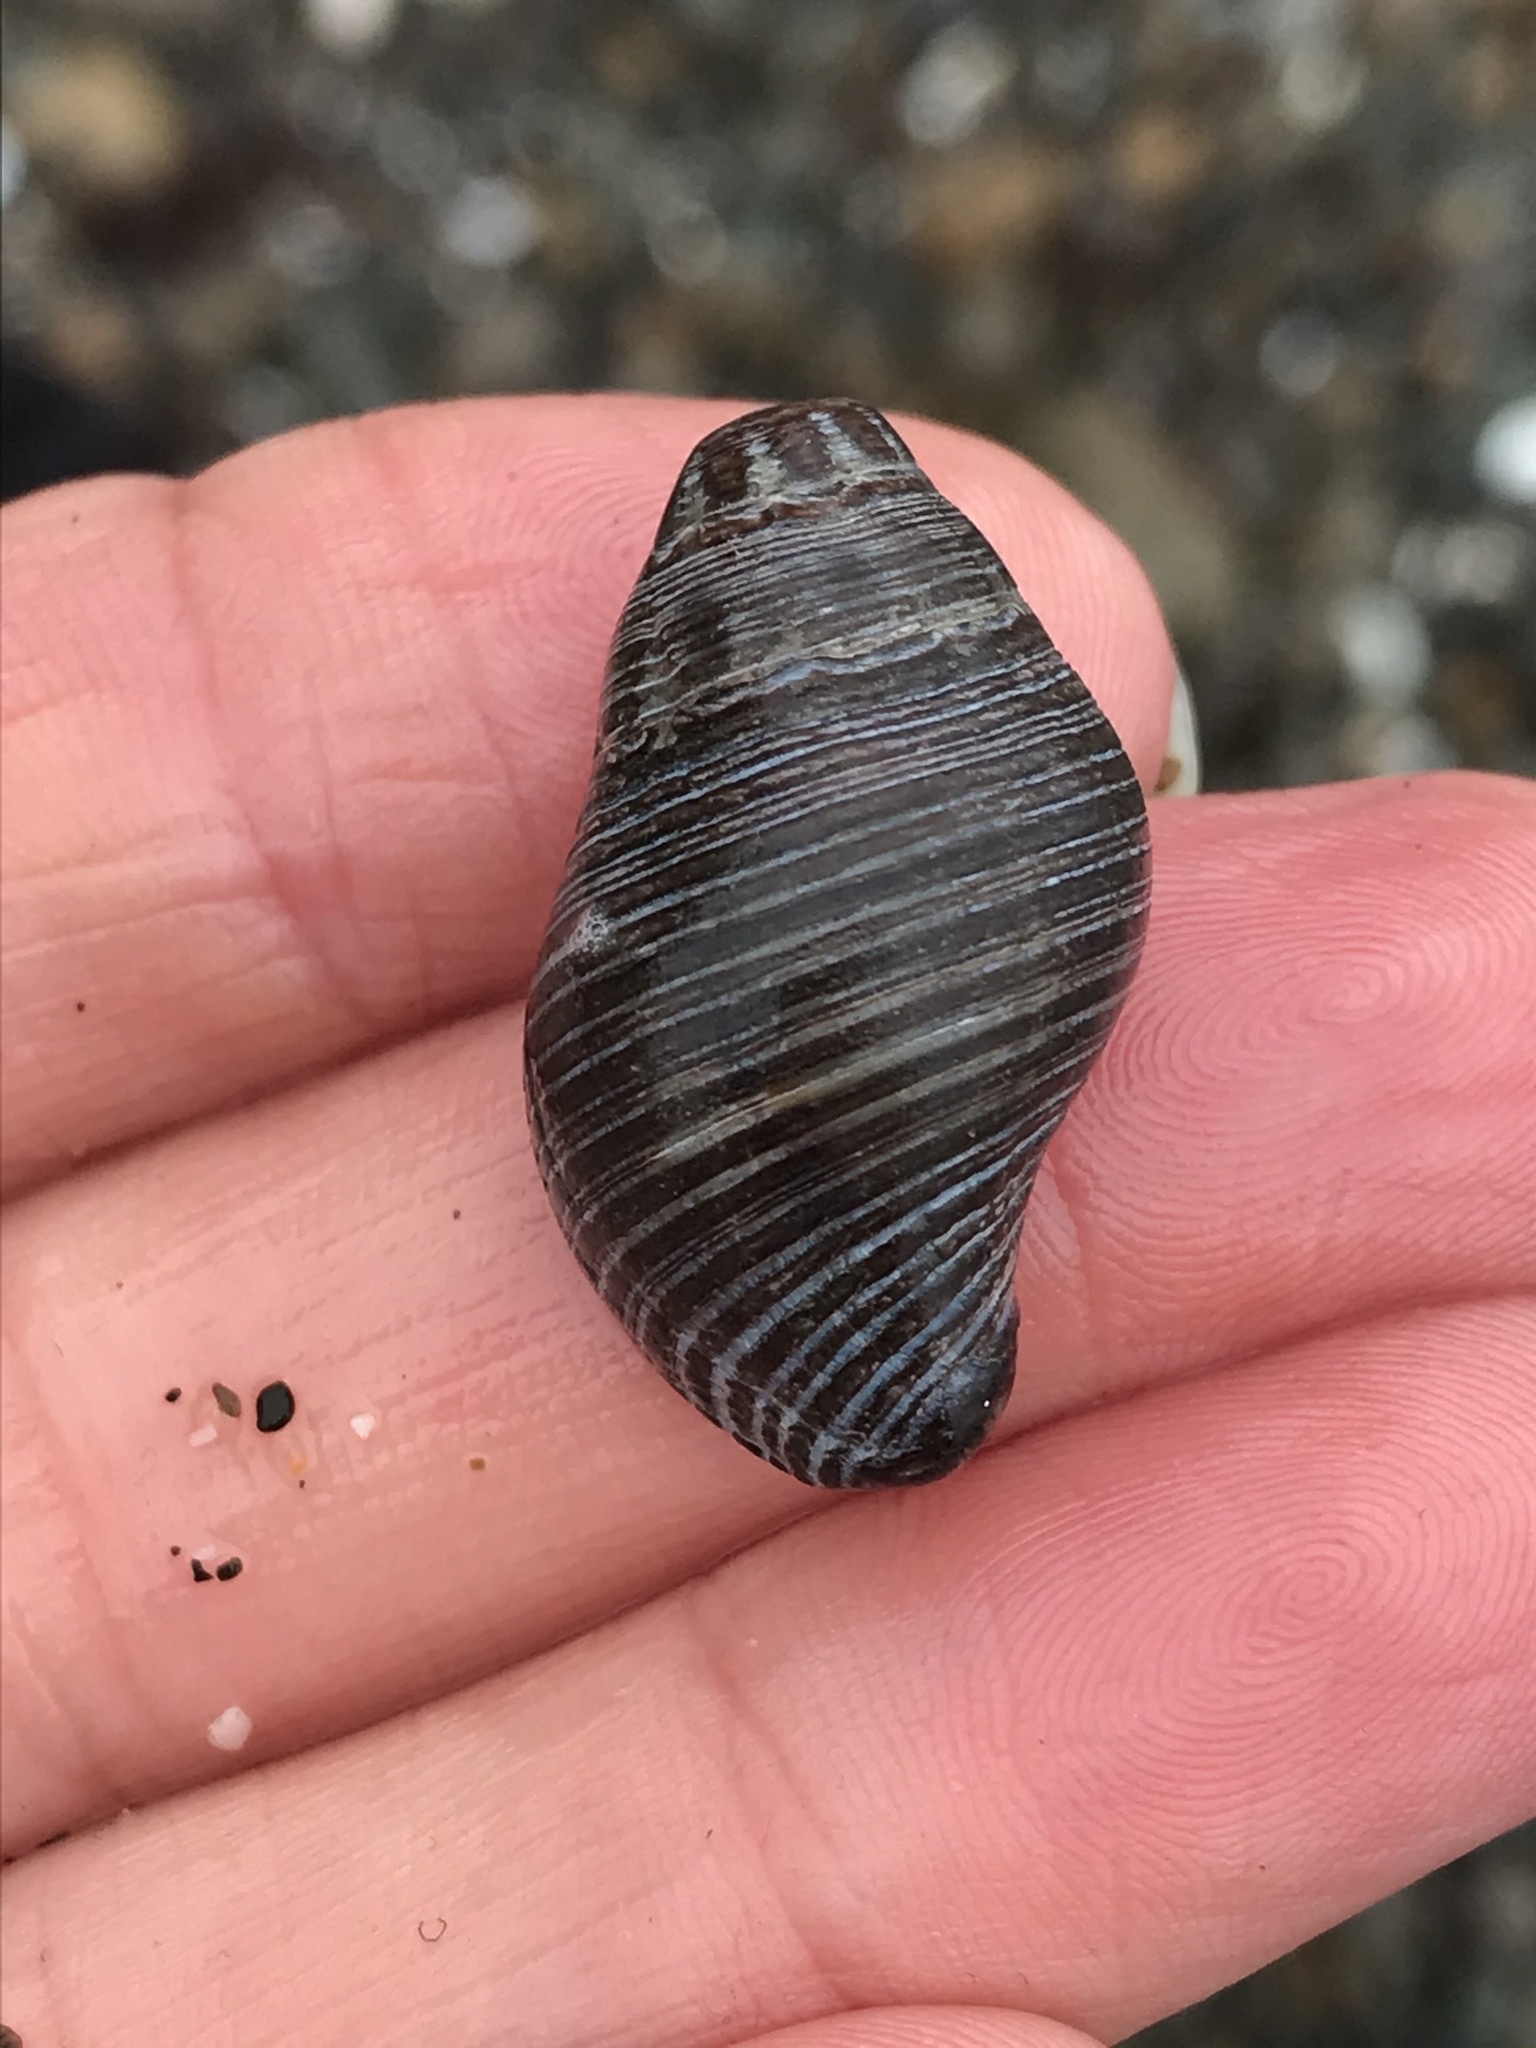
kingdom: Animalia
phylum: Mollusca
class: Gastropoda
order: Neogastropoda
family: Tudiclidae
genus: Lirabuccinum
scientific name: Lirabuccinum dirum
